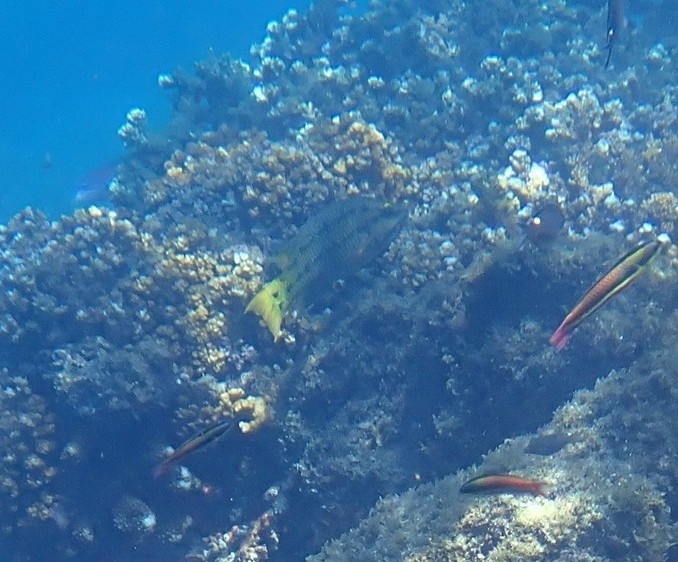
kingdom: Animalia
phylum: Chordata
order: Perciformes
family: Labridae
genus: Bodianus
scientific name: Bodianus diplotaenia
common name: Mexican hogfish
